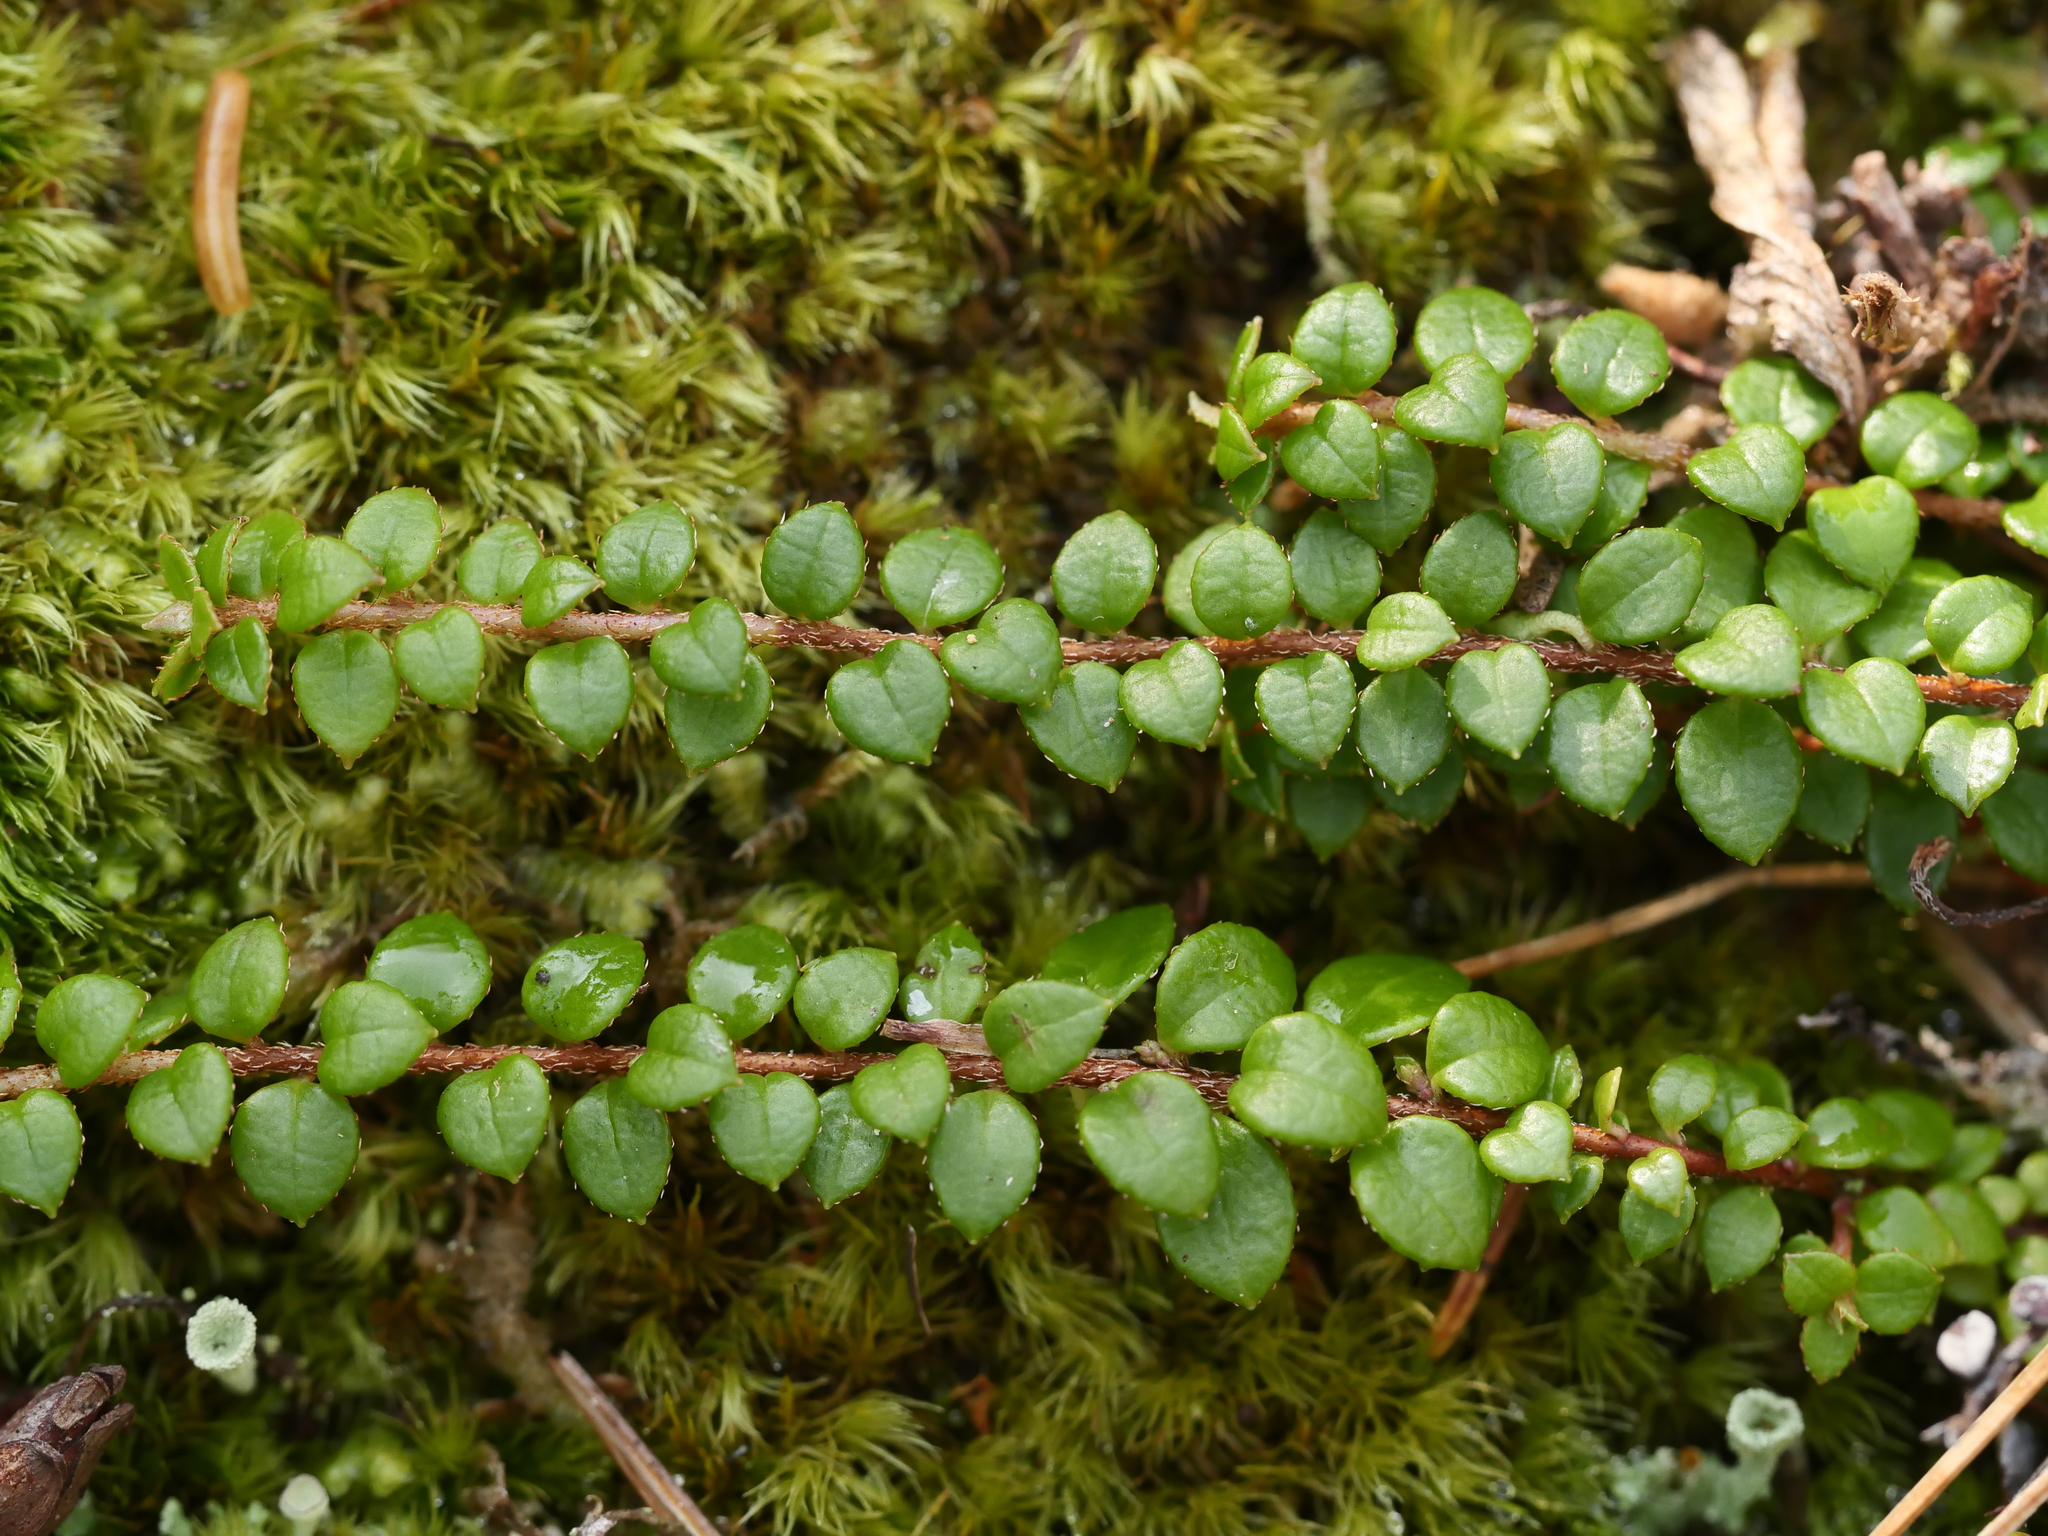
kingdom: Plantae
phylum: Tracheophyta
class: Magnoliopsida
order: Ericales
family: Ericaceae
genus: Gaultheria
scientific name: Gaultheria hispidula
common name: Cancer wintergreen
